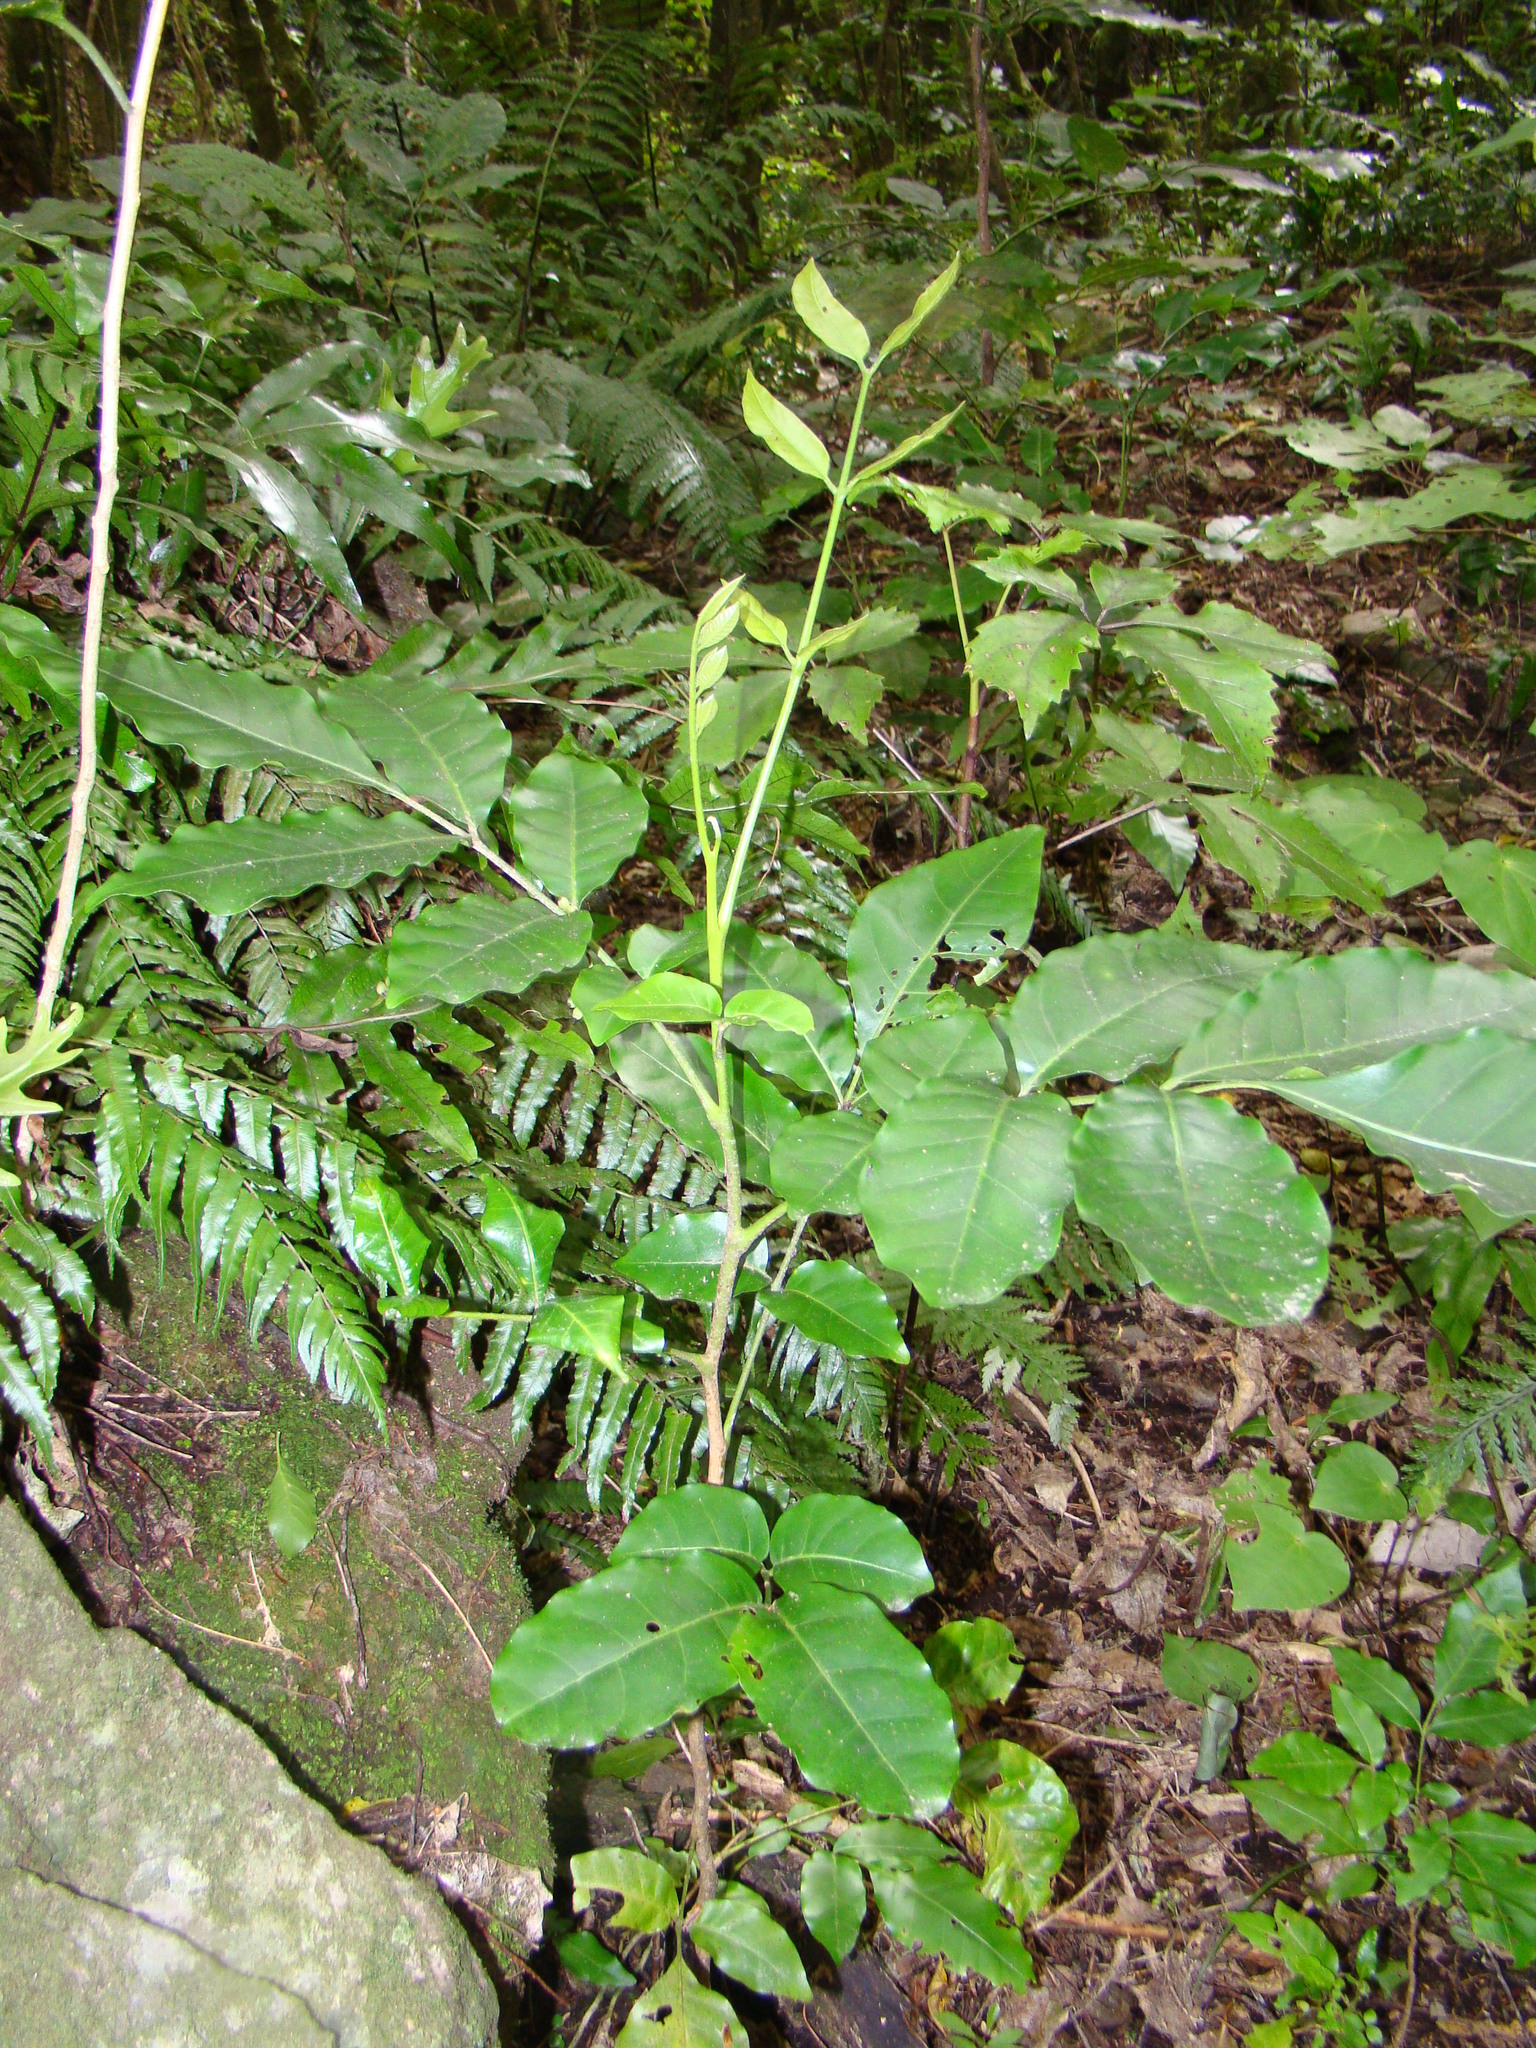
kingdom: Plantae
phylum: Tracheophyta
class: Magnoliopsida
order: Sapindales
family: Meliaceae
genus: Didymocheton
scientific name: Didymocheton spectabilis
